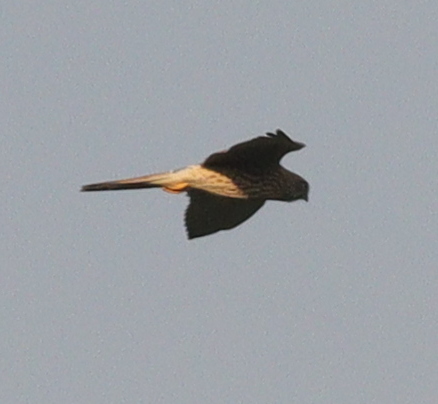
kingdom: Animalia
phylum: Chordata
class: Aves
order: Falconiformes
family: Falconidae
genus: Falco
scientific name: Falco tinnunculus
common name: Common kestrel
